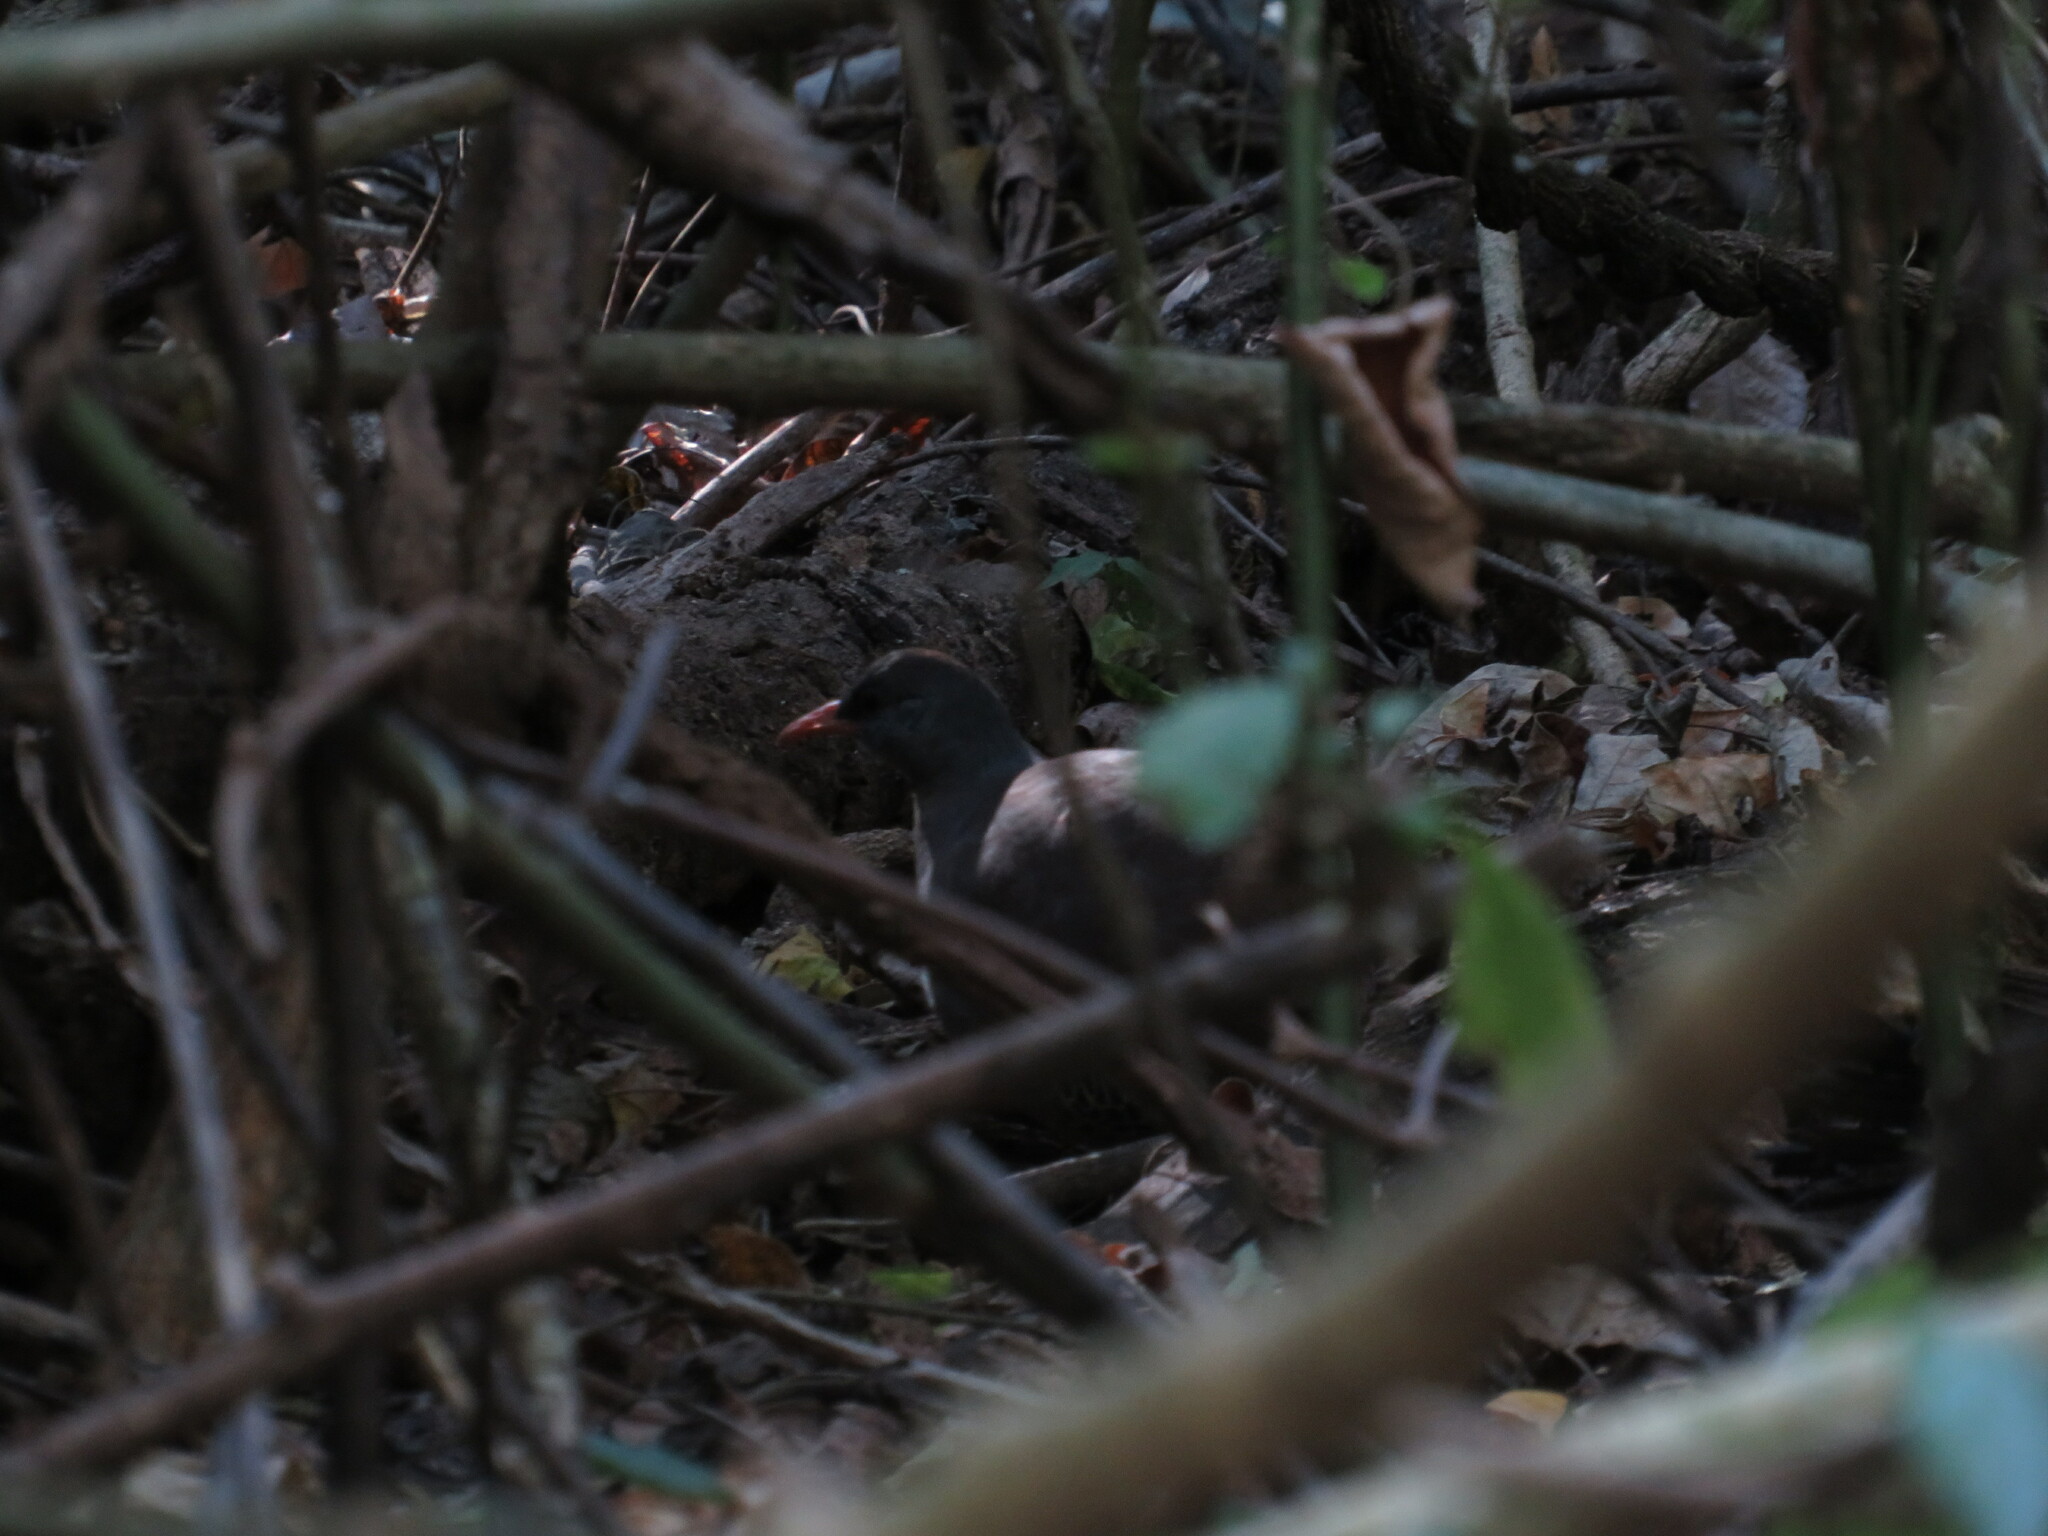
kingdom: Animalia
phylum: Chordata
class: Aves
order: Tinamiformes
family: Tinamidae
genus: Crypturellus
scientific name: Crypturellus tataupa
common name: Tataupa tinamou
